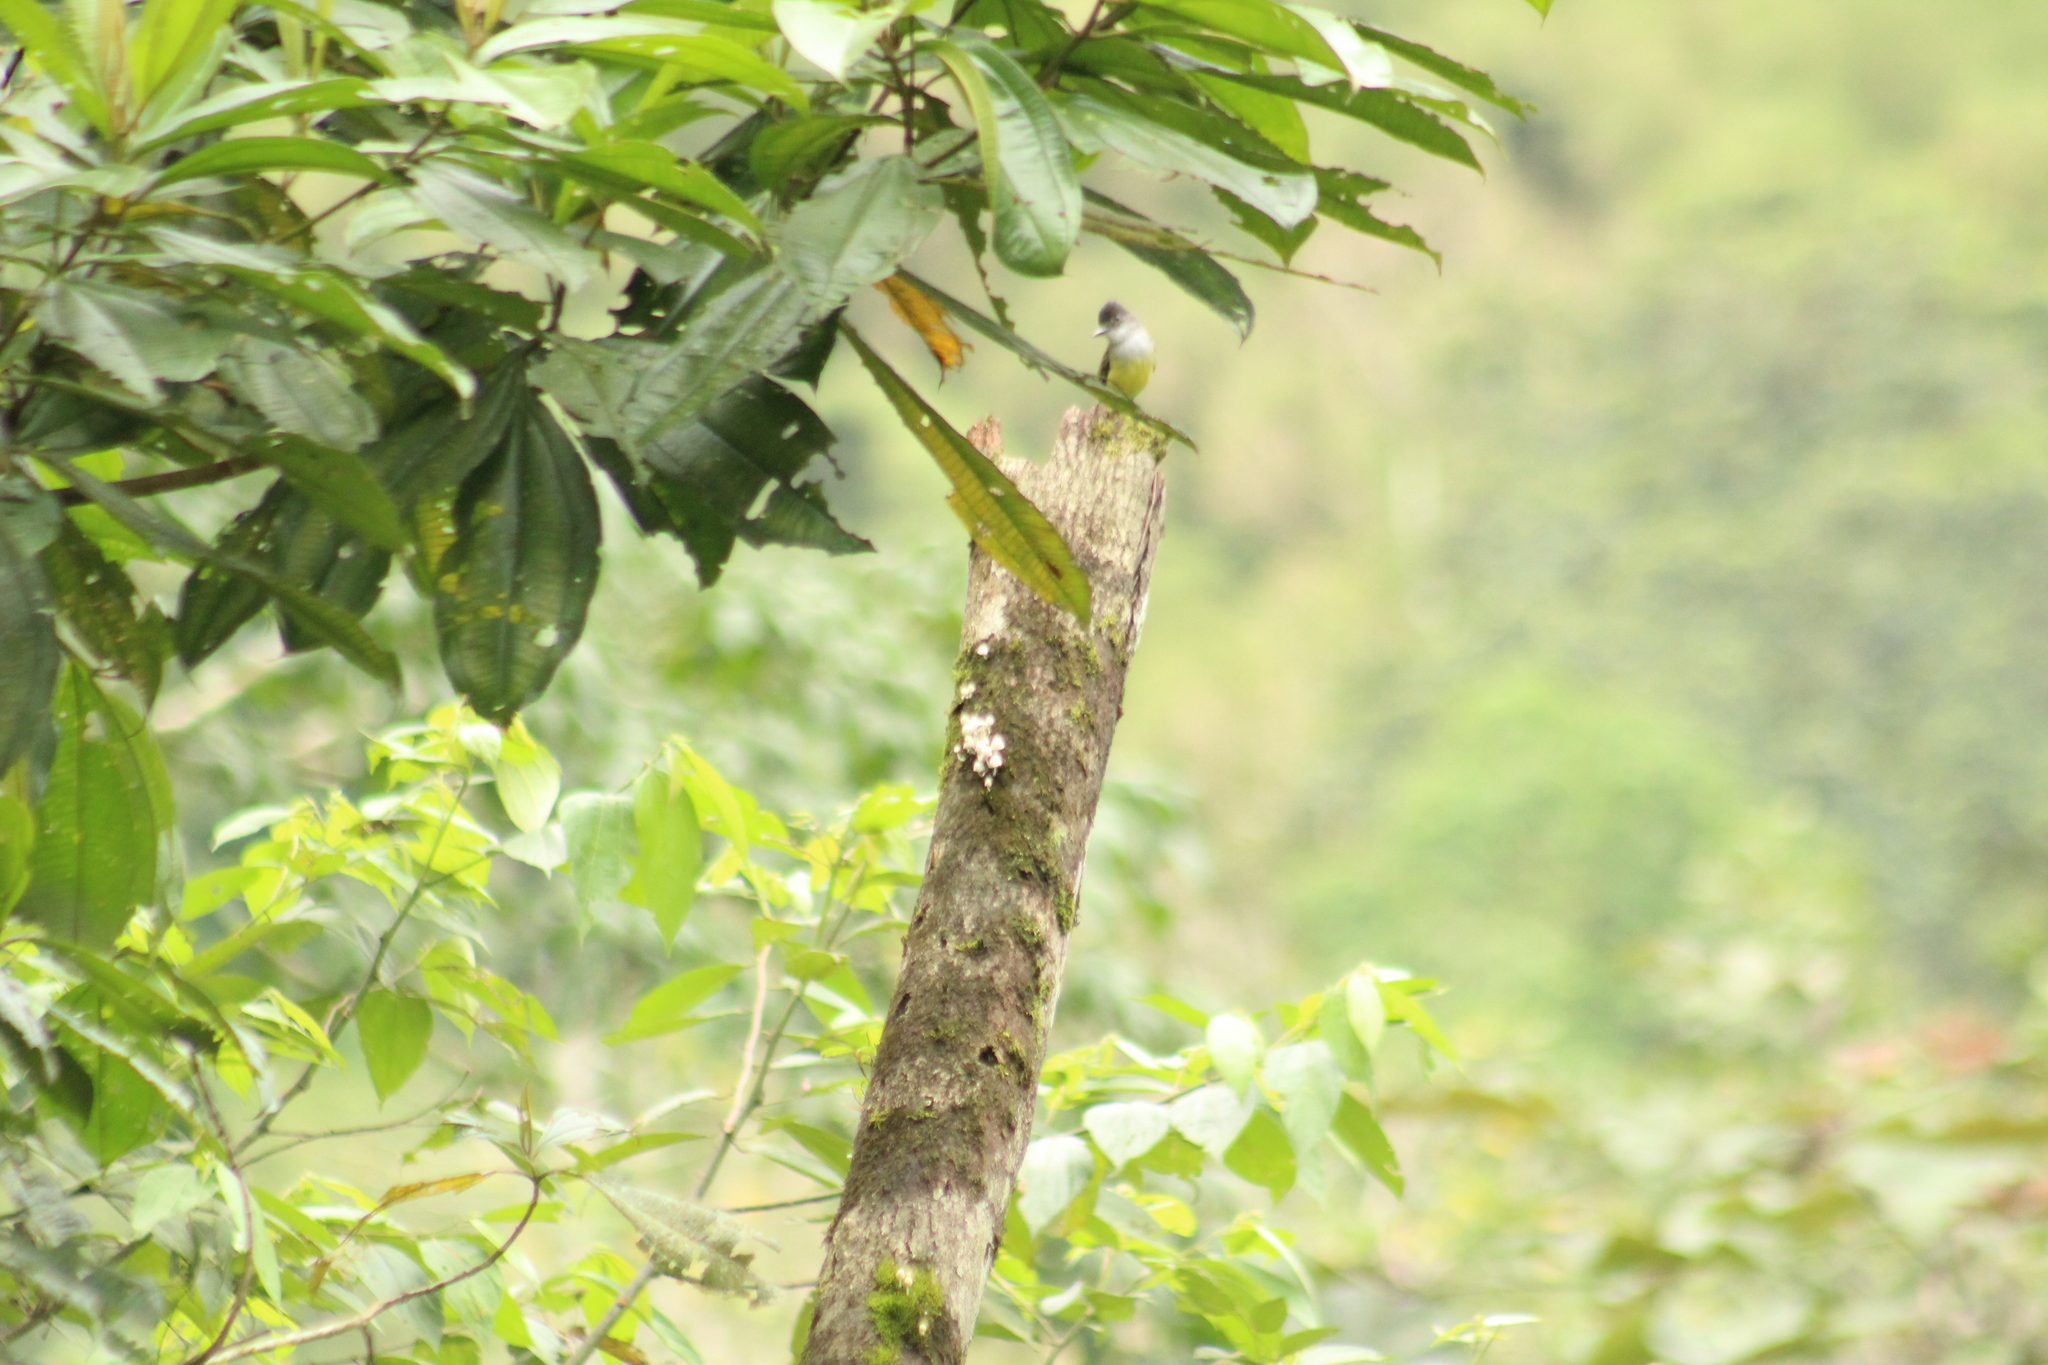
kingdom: Animalia
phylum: Chordata
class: Aves
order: Passeriformes
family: Tyrannidae
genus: Myiarchus
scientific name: Myiarchus tuberculifer
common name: Dusky-capped flycatcher
